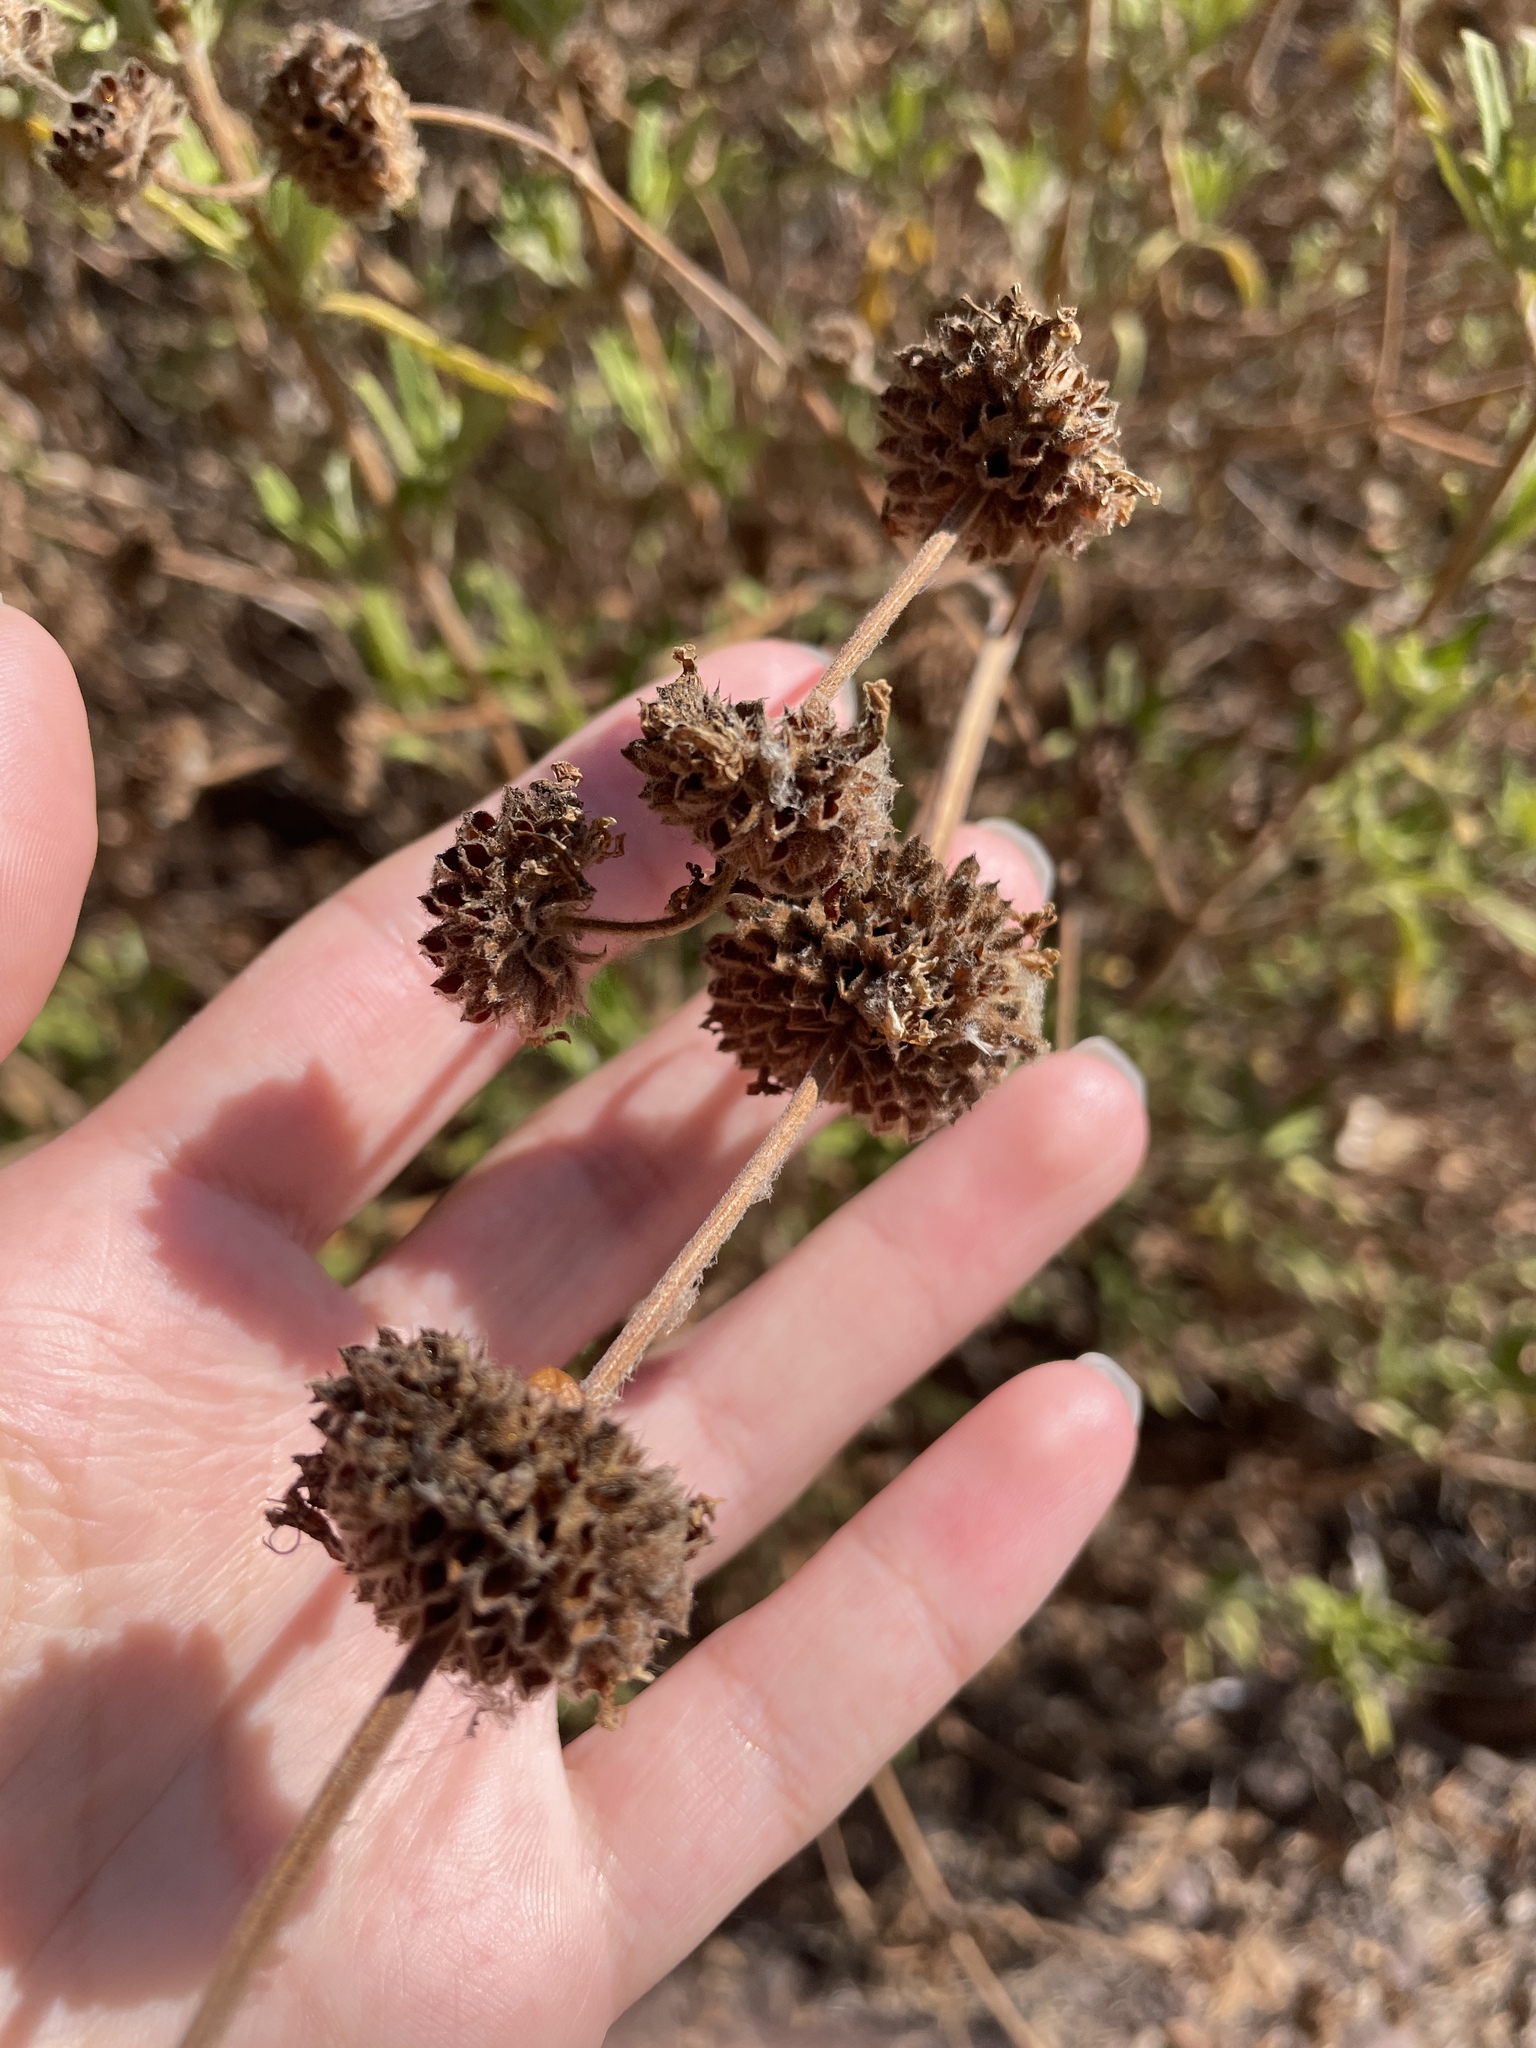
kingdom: Plantae
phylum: Tracheophyta
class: Magnoliopsida
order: Lamiales
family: Lamiaceae
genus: Salvia
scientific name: Salvia mellifera
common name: Black sage
